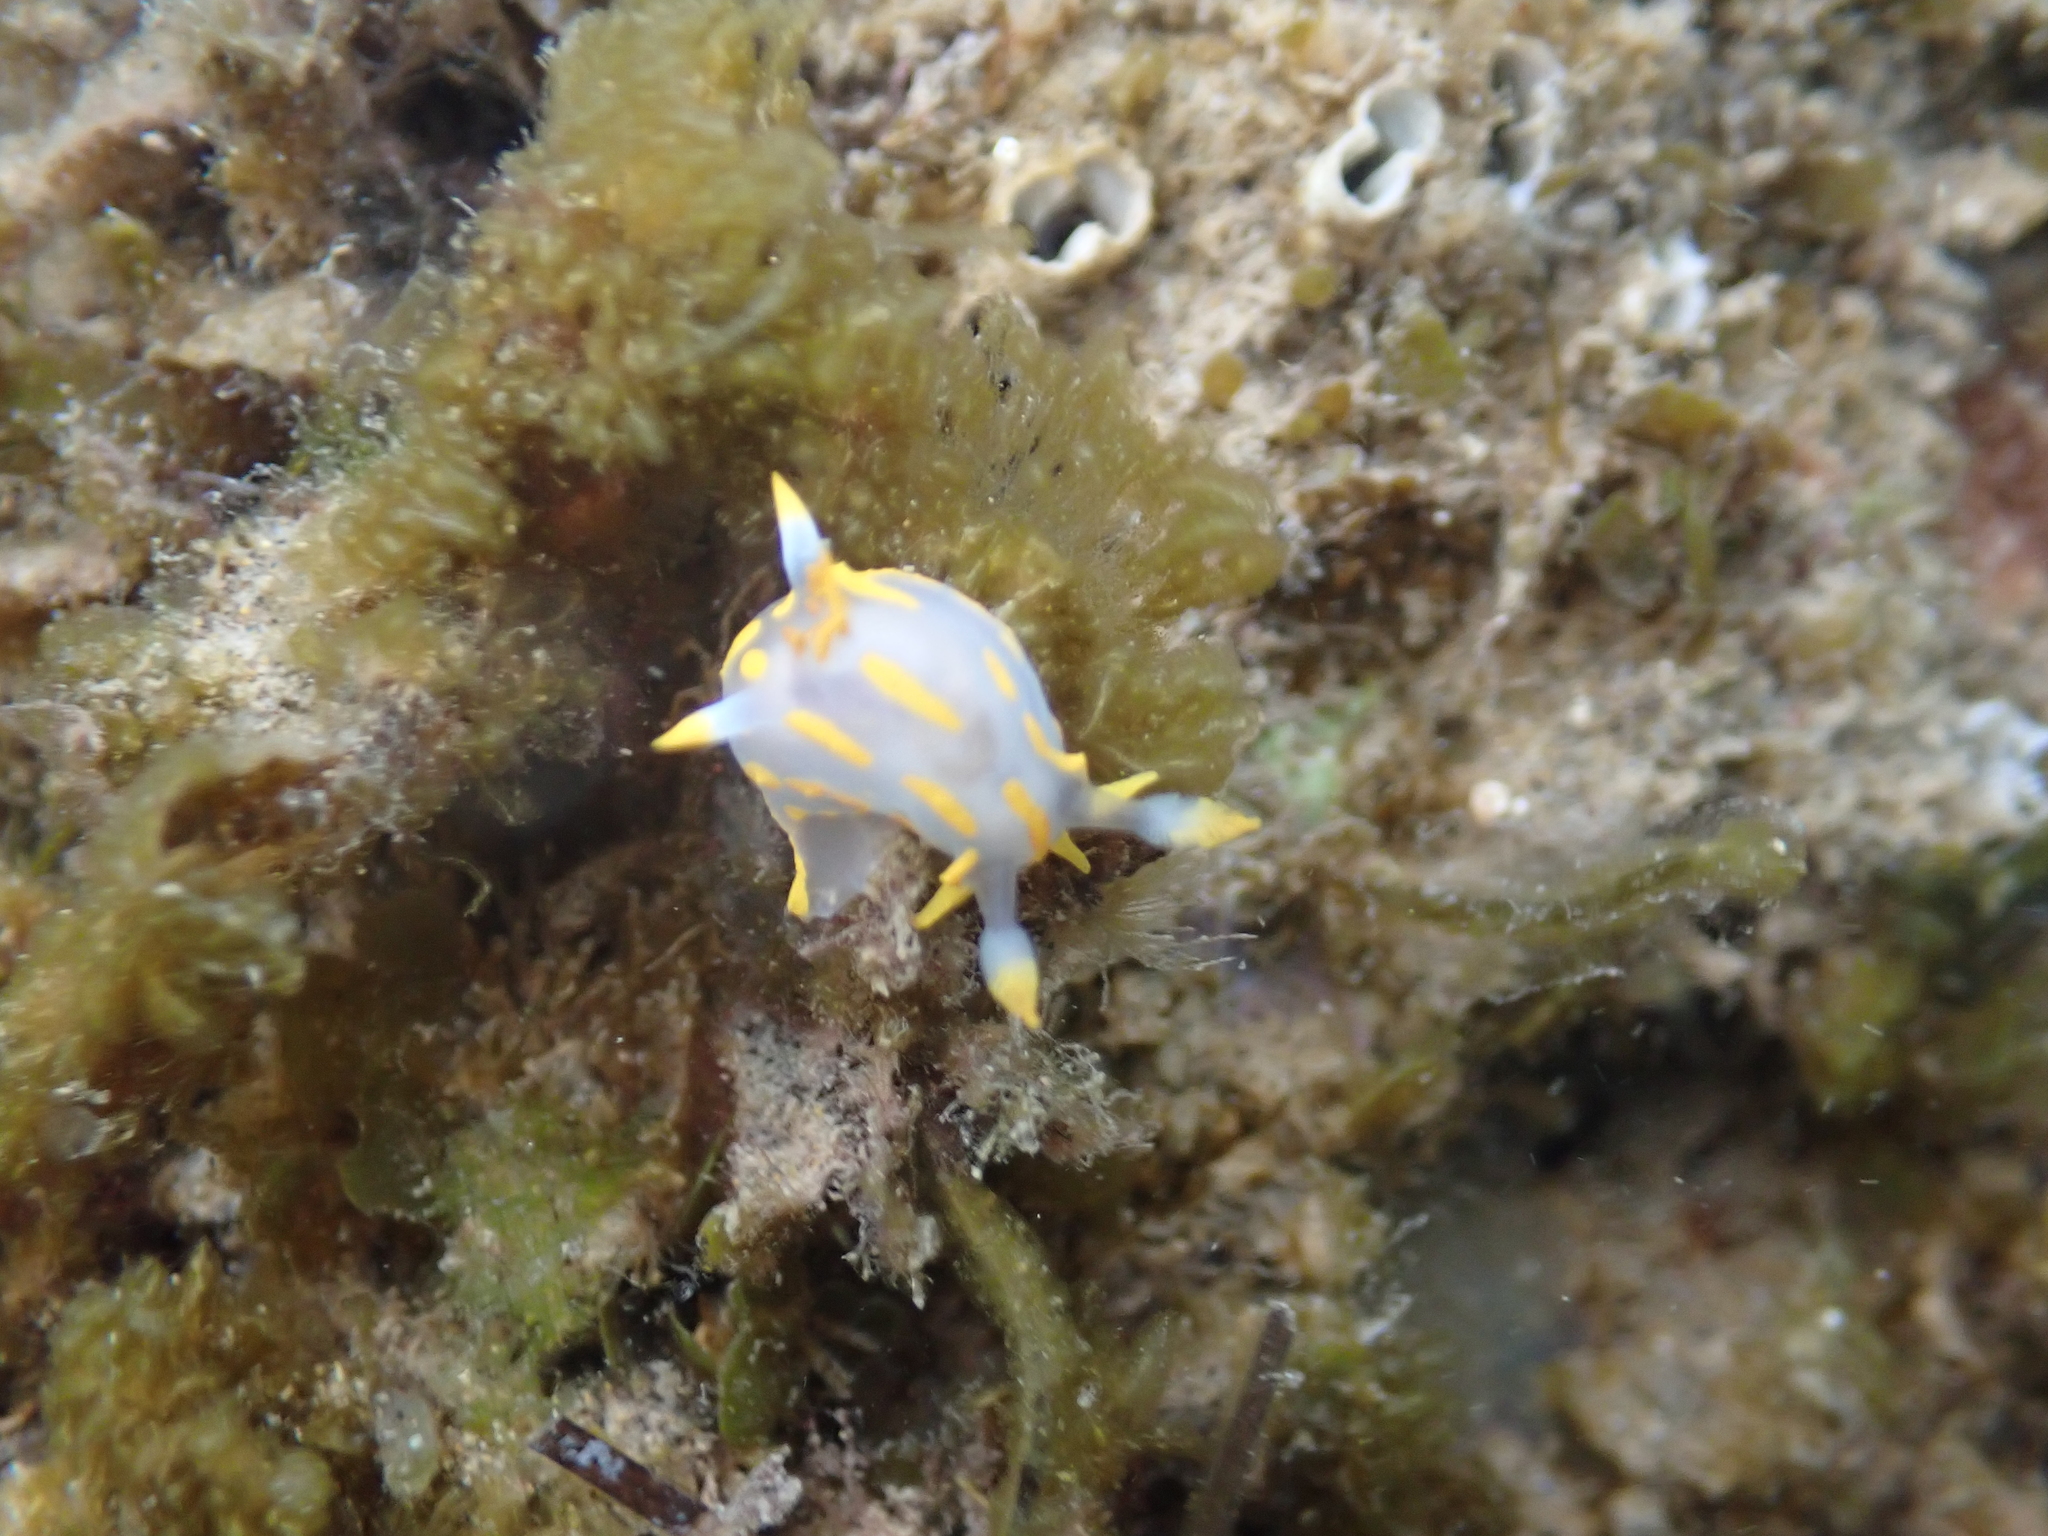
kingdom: Animalia
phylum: Mollusca
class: Gastropoda
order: Nudibranchia
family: Polyceridae
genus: Polycera
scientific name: Polycera quadrilineata
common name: Four-striped polycera
